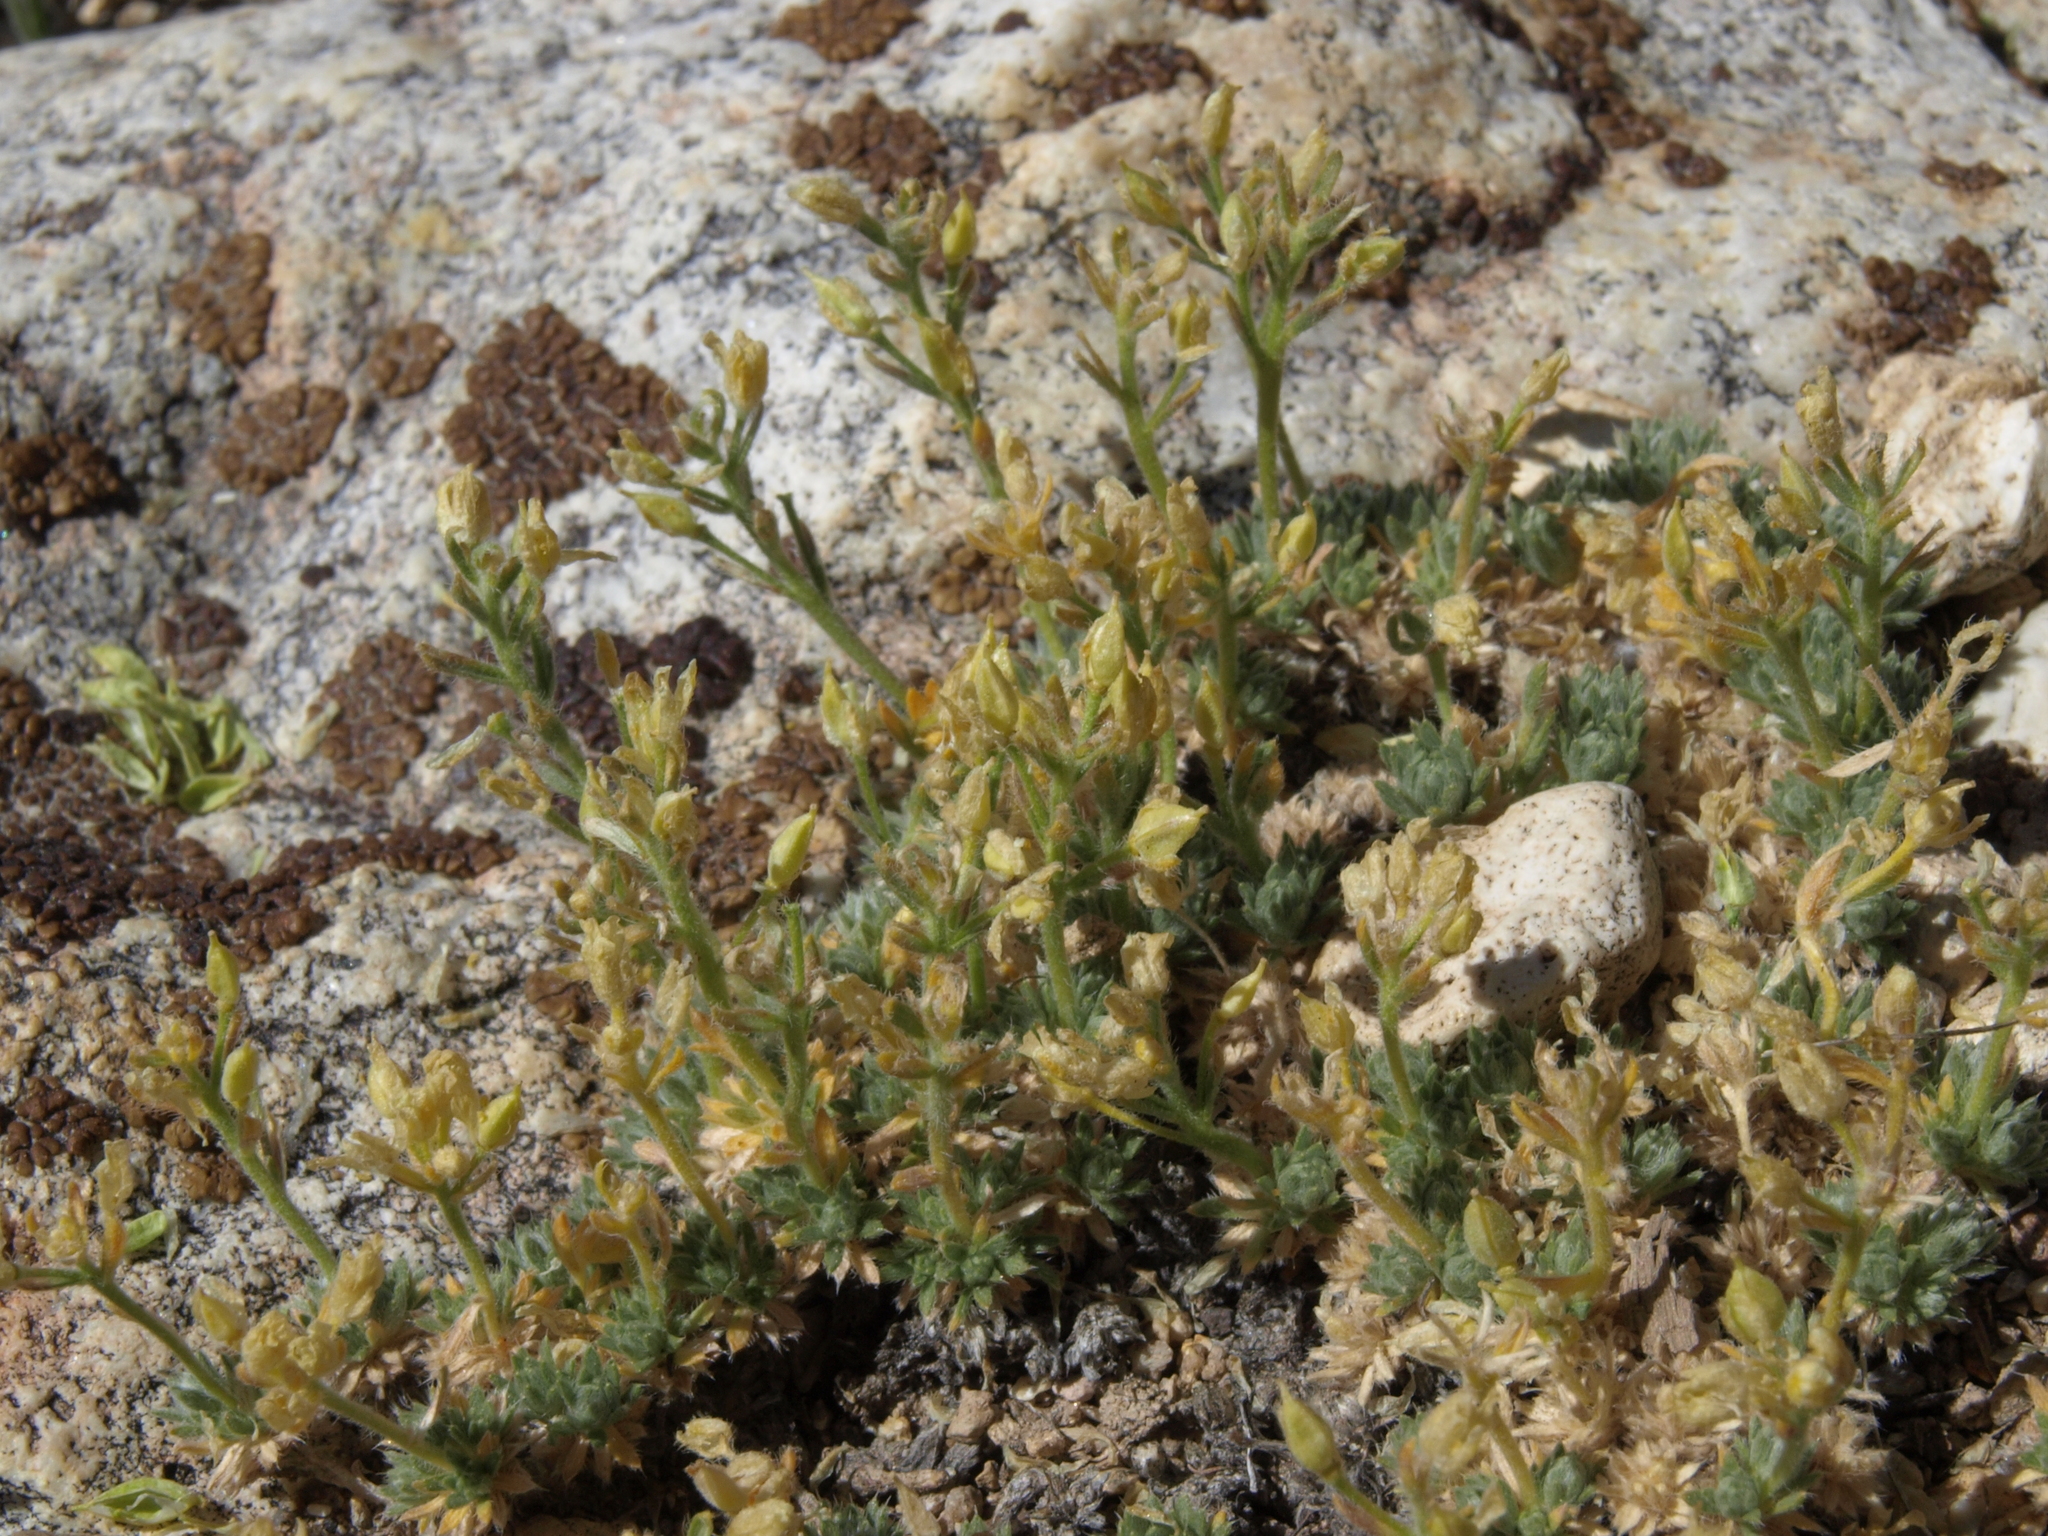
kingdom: Plantae
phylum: Tracheophyta
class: Magnoliopsida
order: Brassicales
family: Brassicaceae
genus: Cusickiella
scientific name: Cusickiella quadricostata
